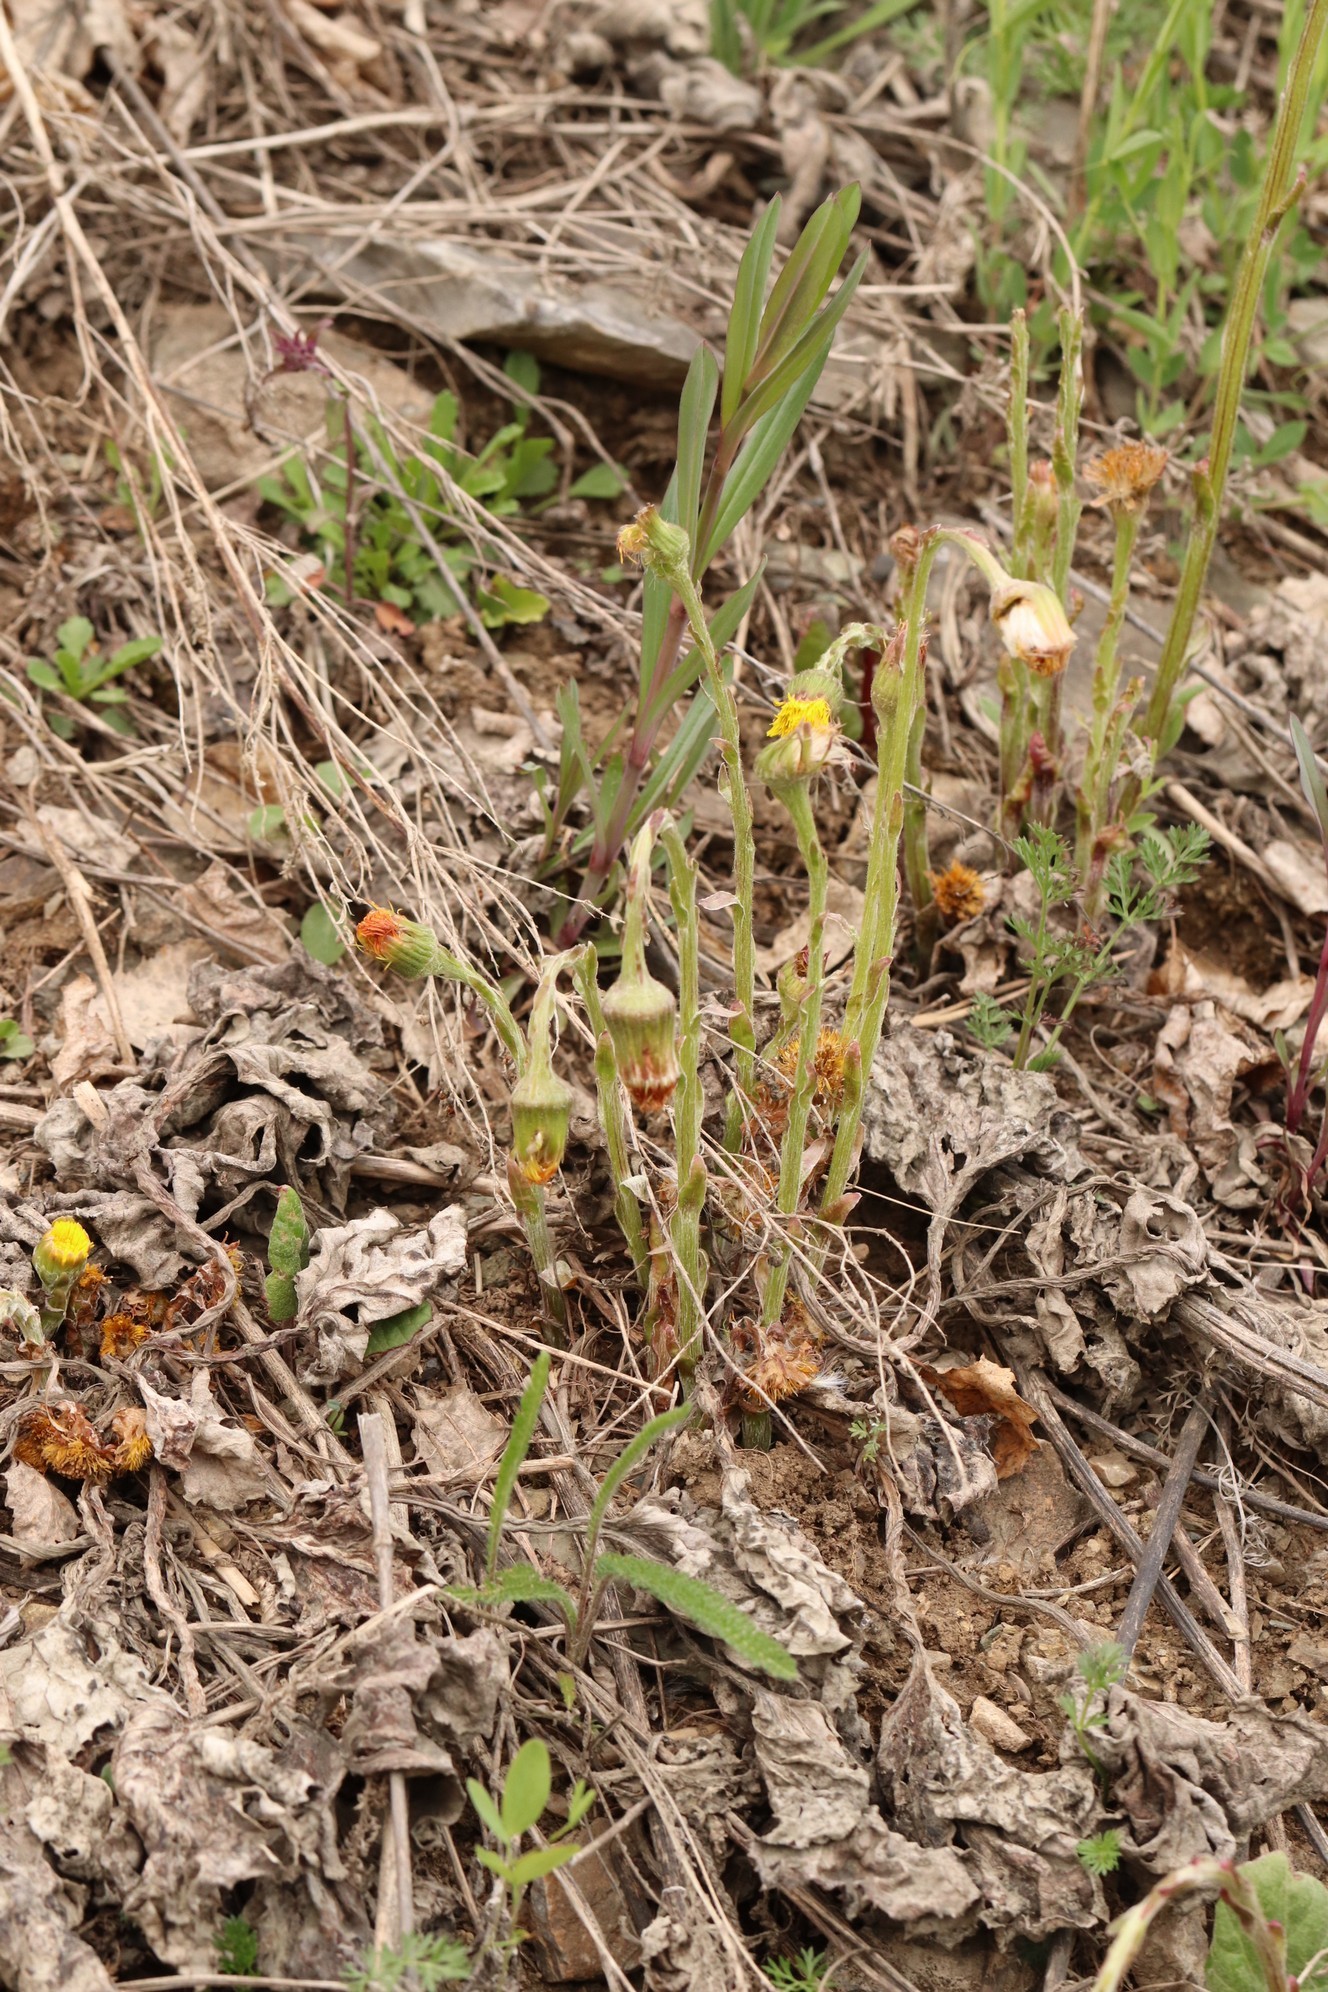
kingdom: Plantae
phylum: Tracheophyta
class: Magnoliopsida
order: Asterales
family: Asteraceae
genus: Tussilago
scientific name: Tussilago farfara
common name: Coltsfoot
